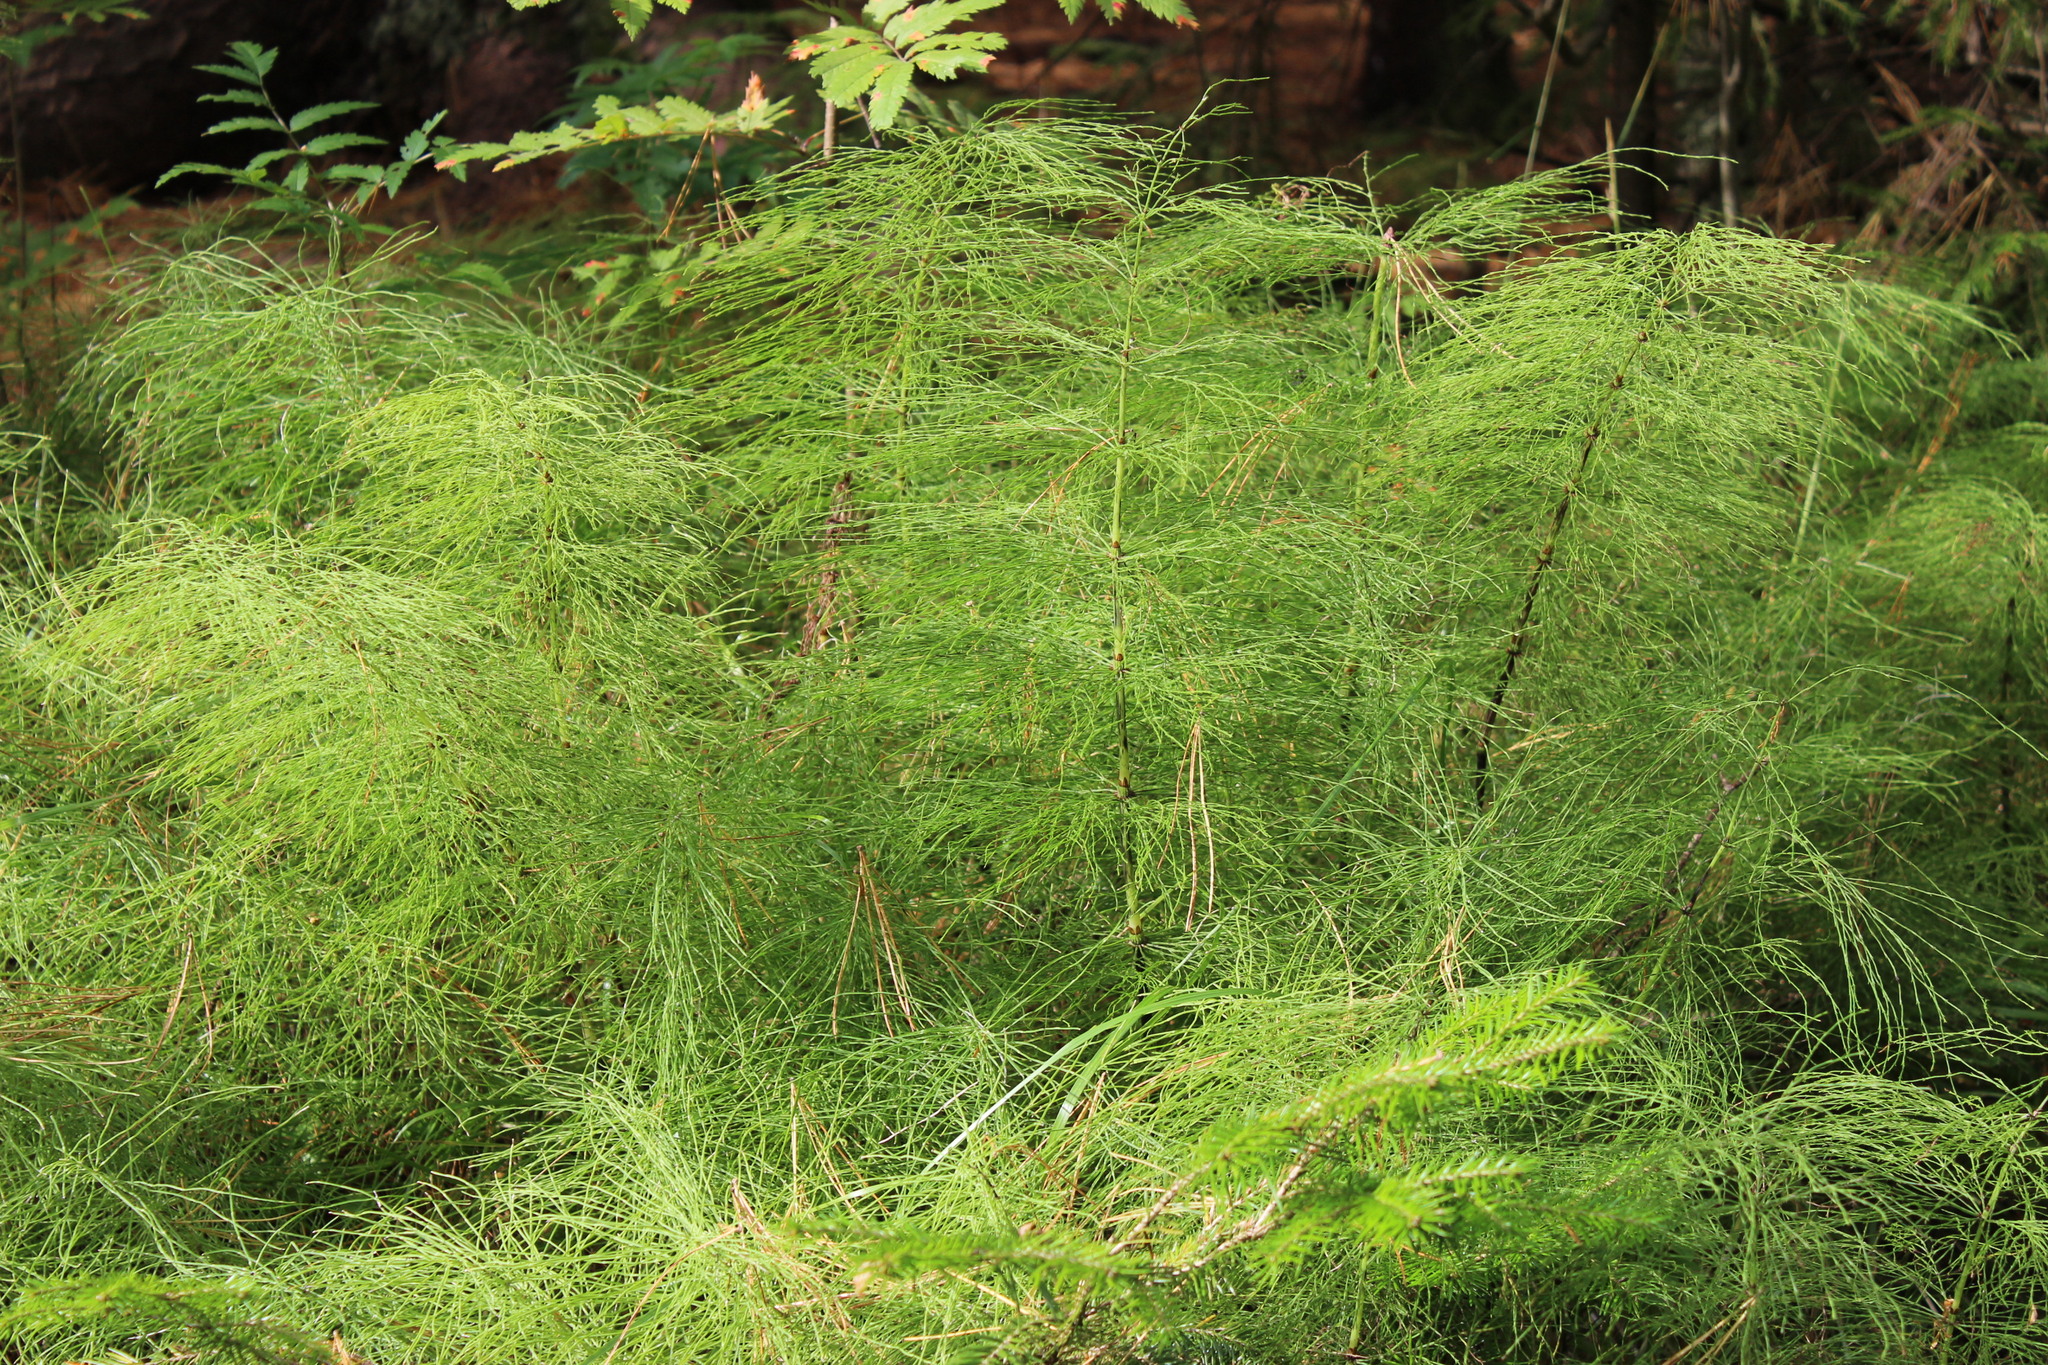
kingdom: Plantae
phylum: Tracheophyta
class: Polypodiopsida
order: Equisetales
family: Equisetaceae
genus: Equisetum
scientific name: Equisetum sylvaticum
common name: Wood horsetail
